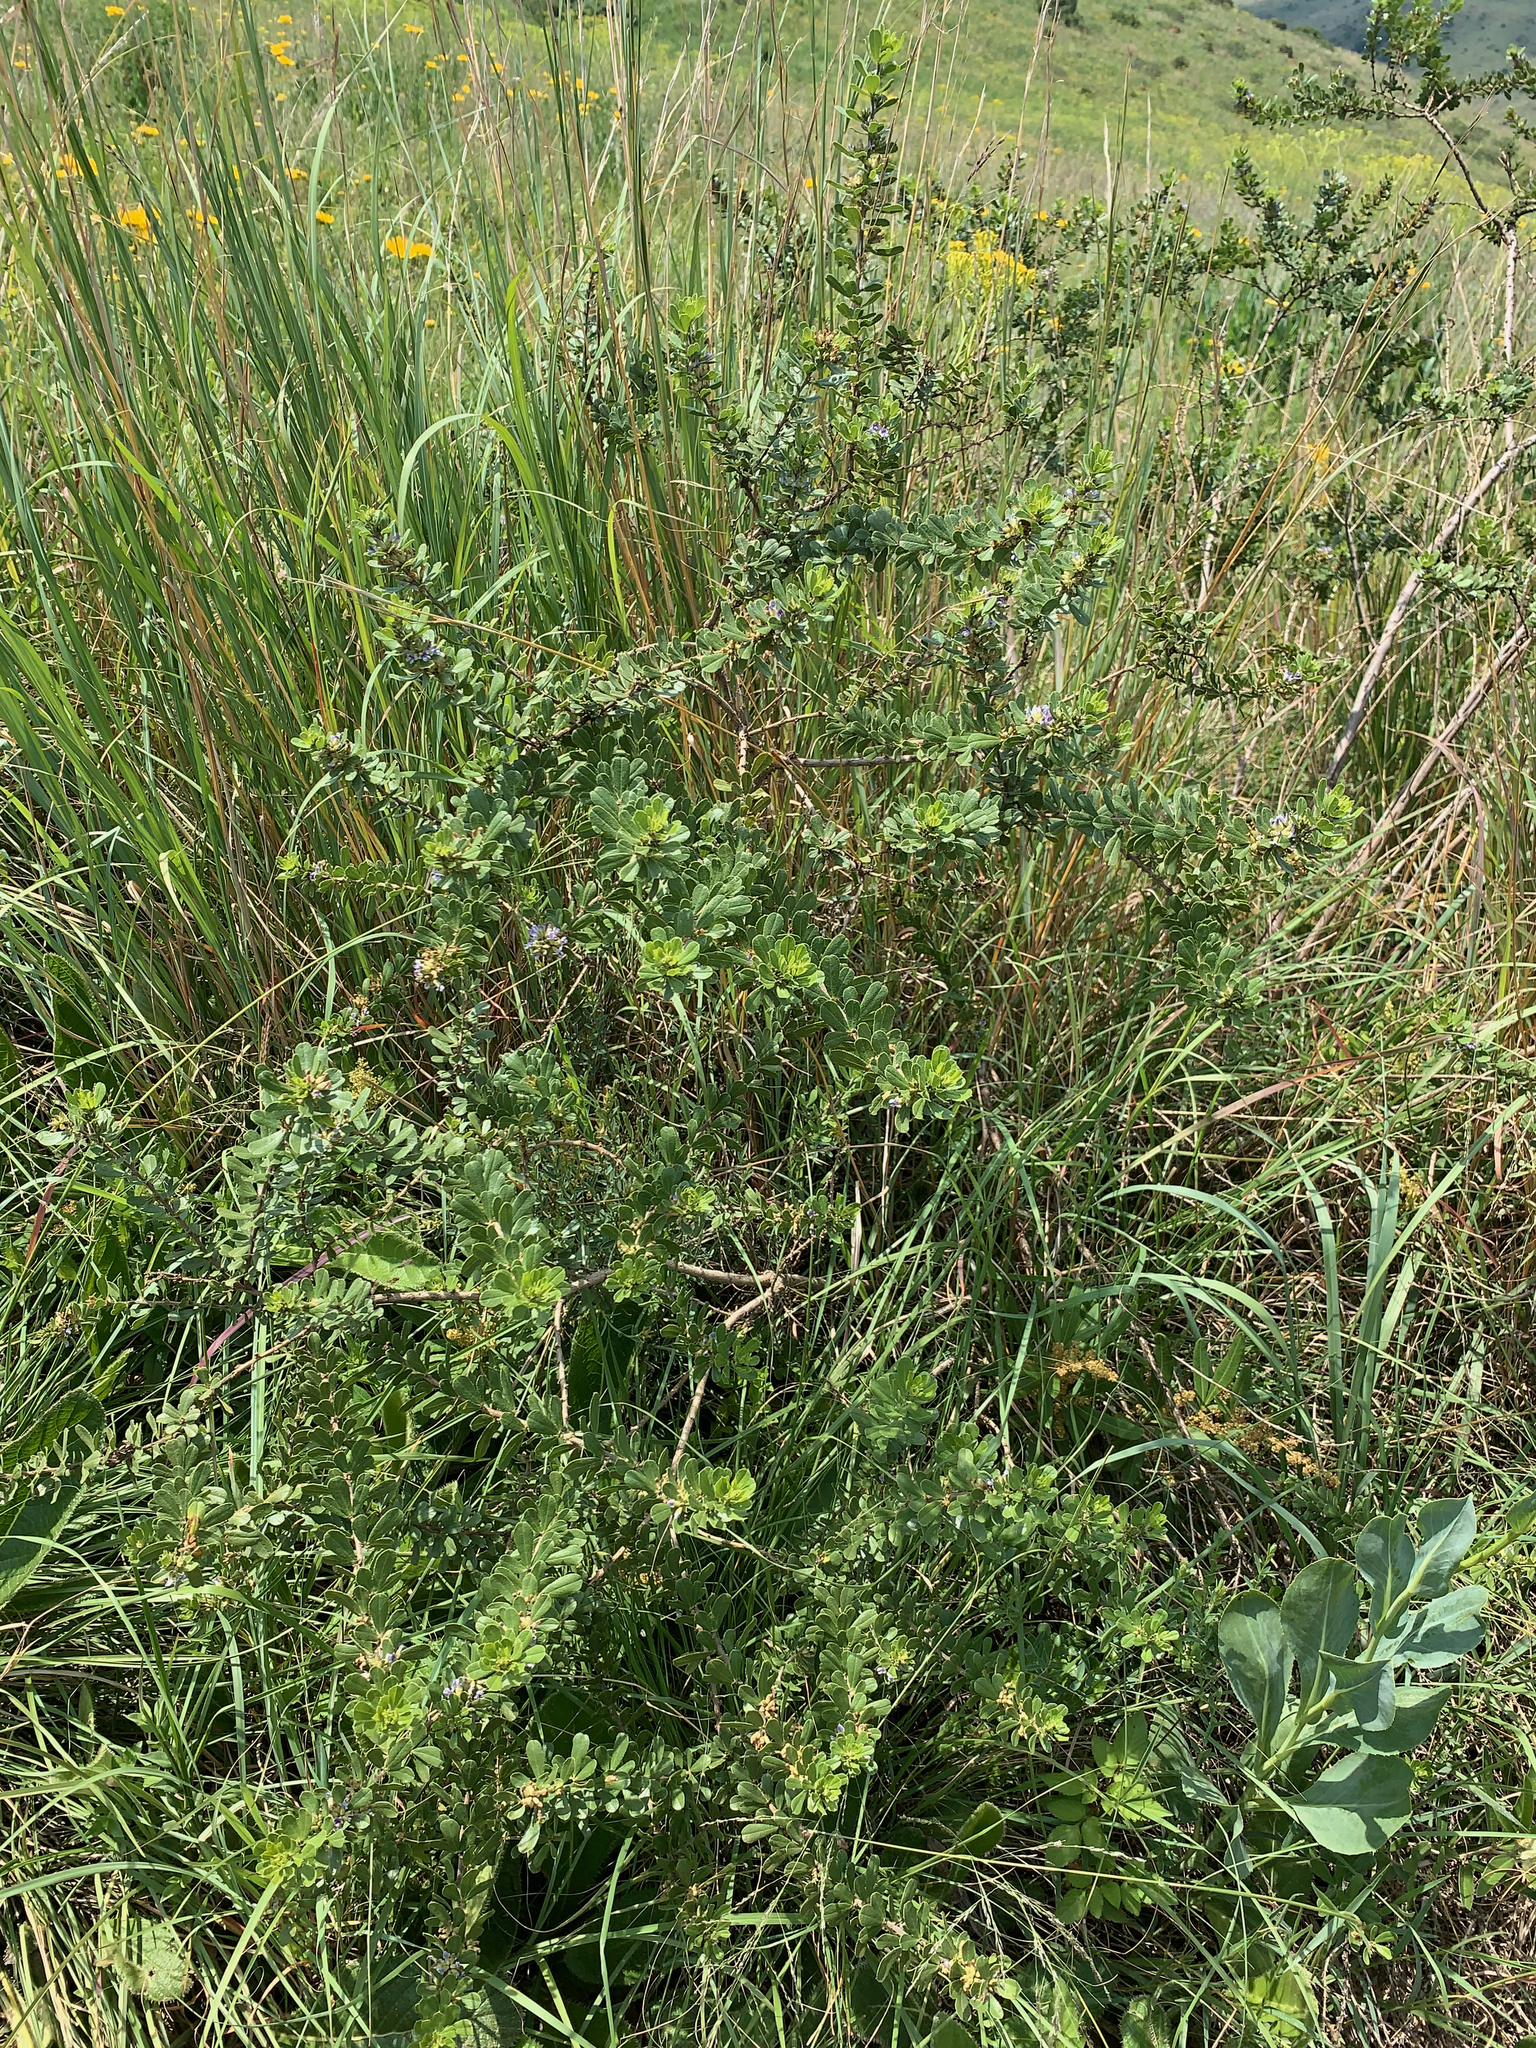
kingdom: Plantae
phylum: Tracheophyta
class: Magnoliopsida
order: Fabales
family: Fabaceae
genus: Psoralea
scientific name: Psoralea polysticta
